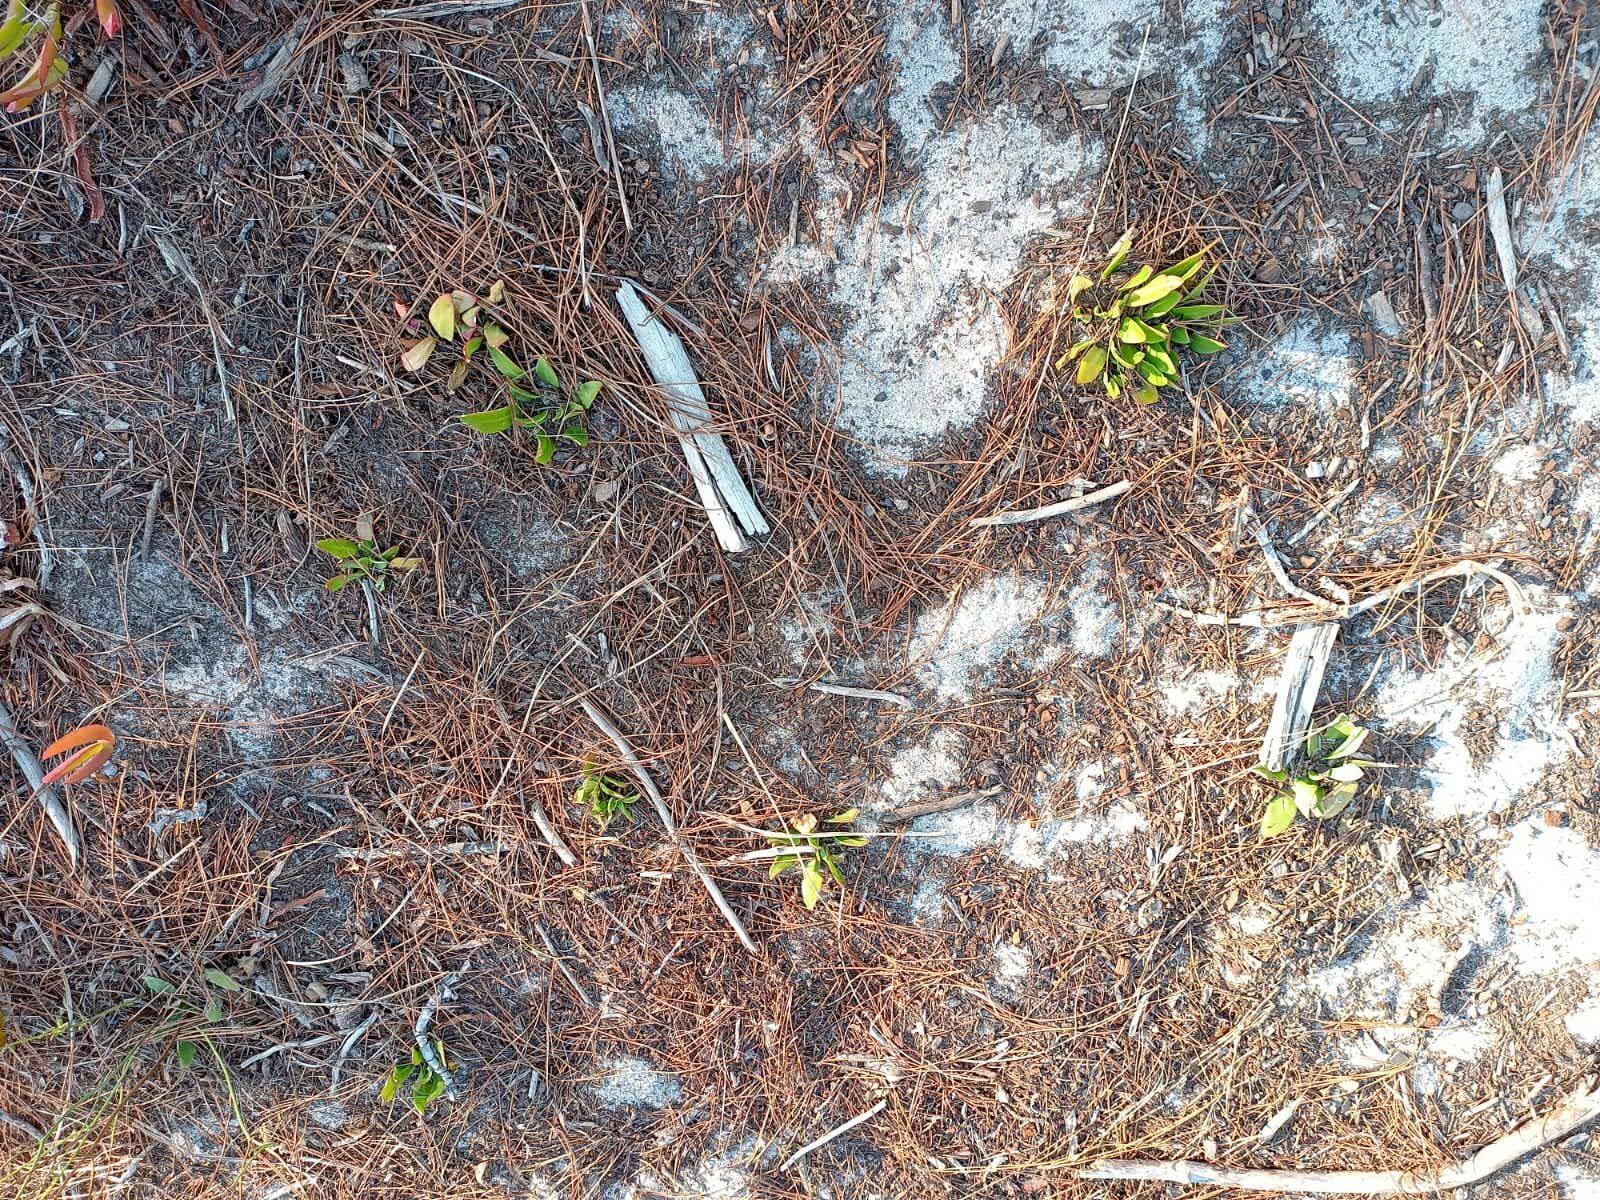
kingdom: Plantae
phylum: Tracheophyta
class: Magnoliopsida
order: Caryophyllales
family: Aizoaceae
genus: Skiatophytum
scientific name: Skiatophytum tripolium
